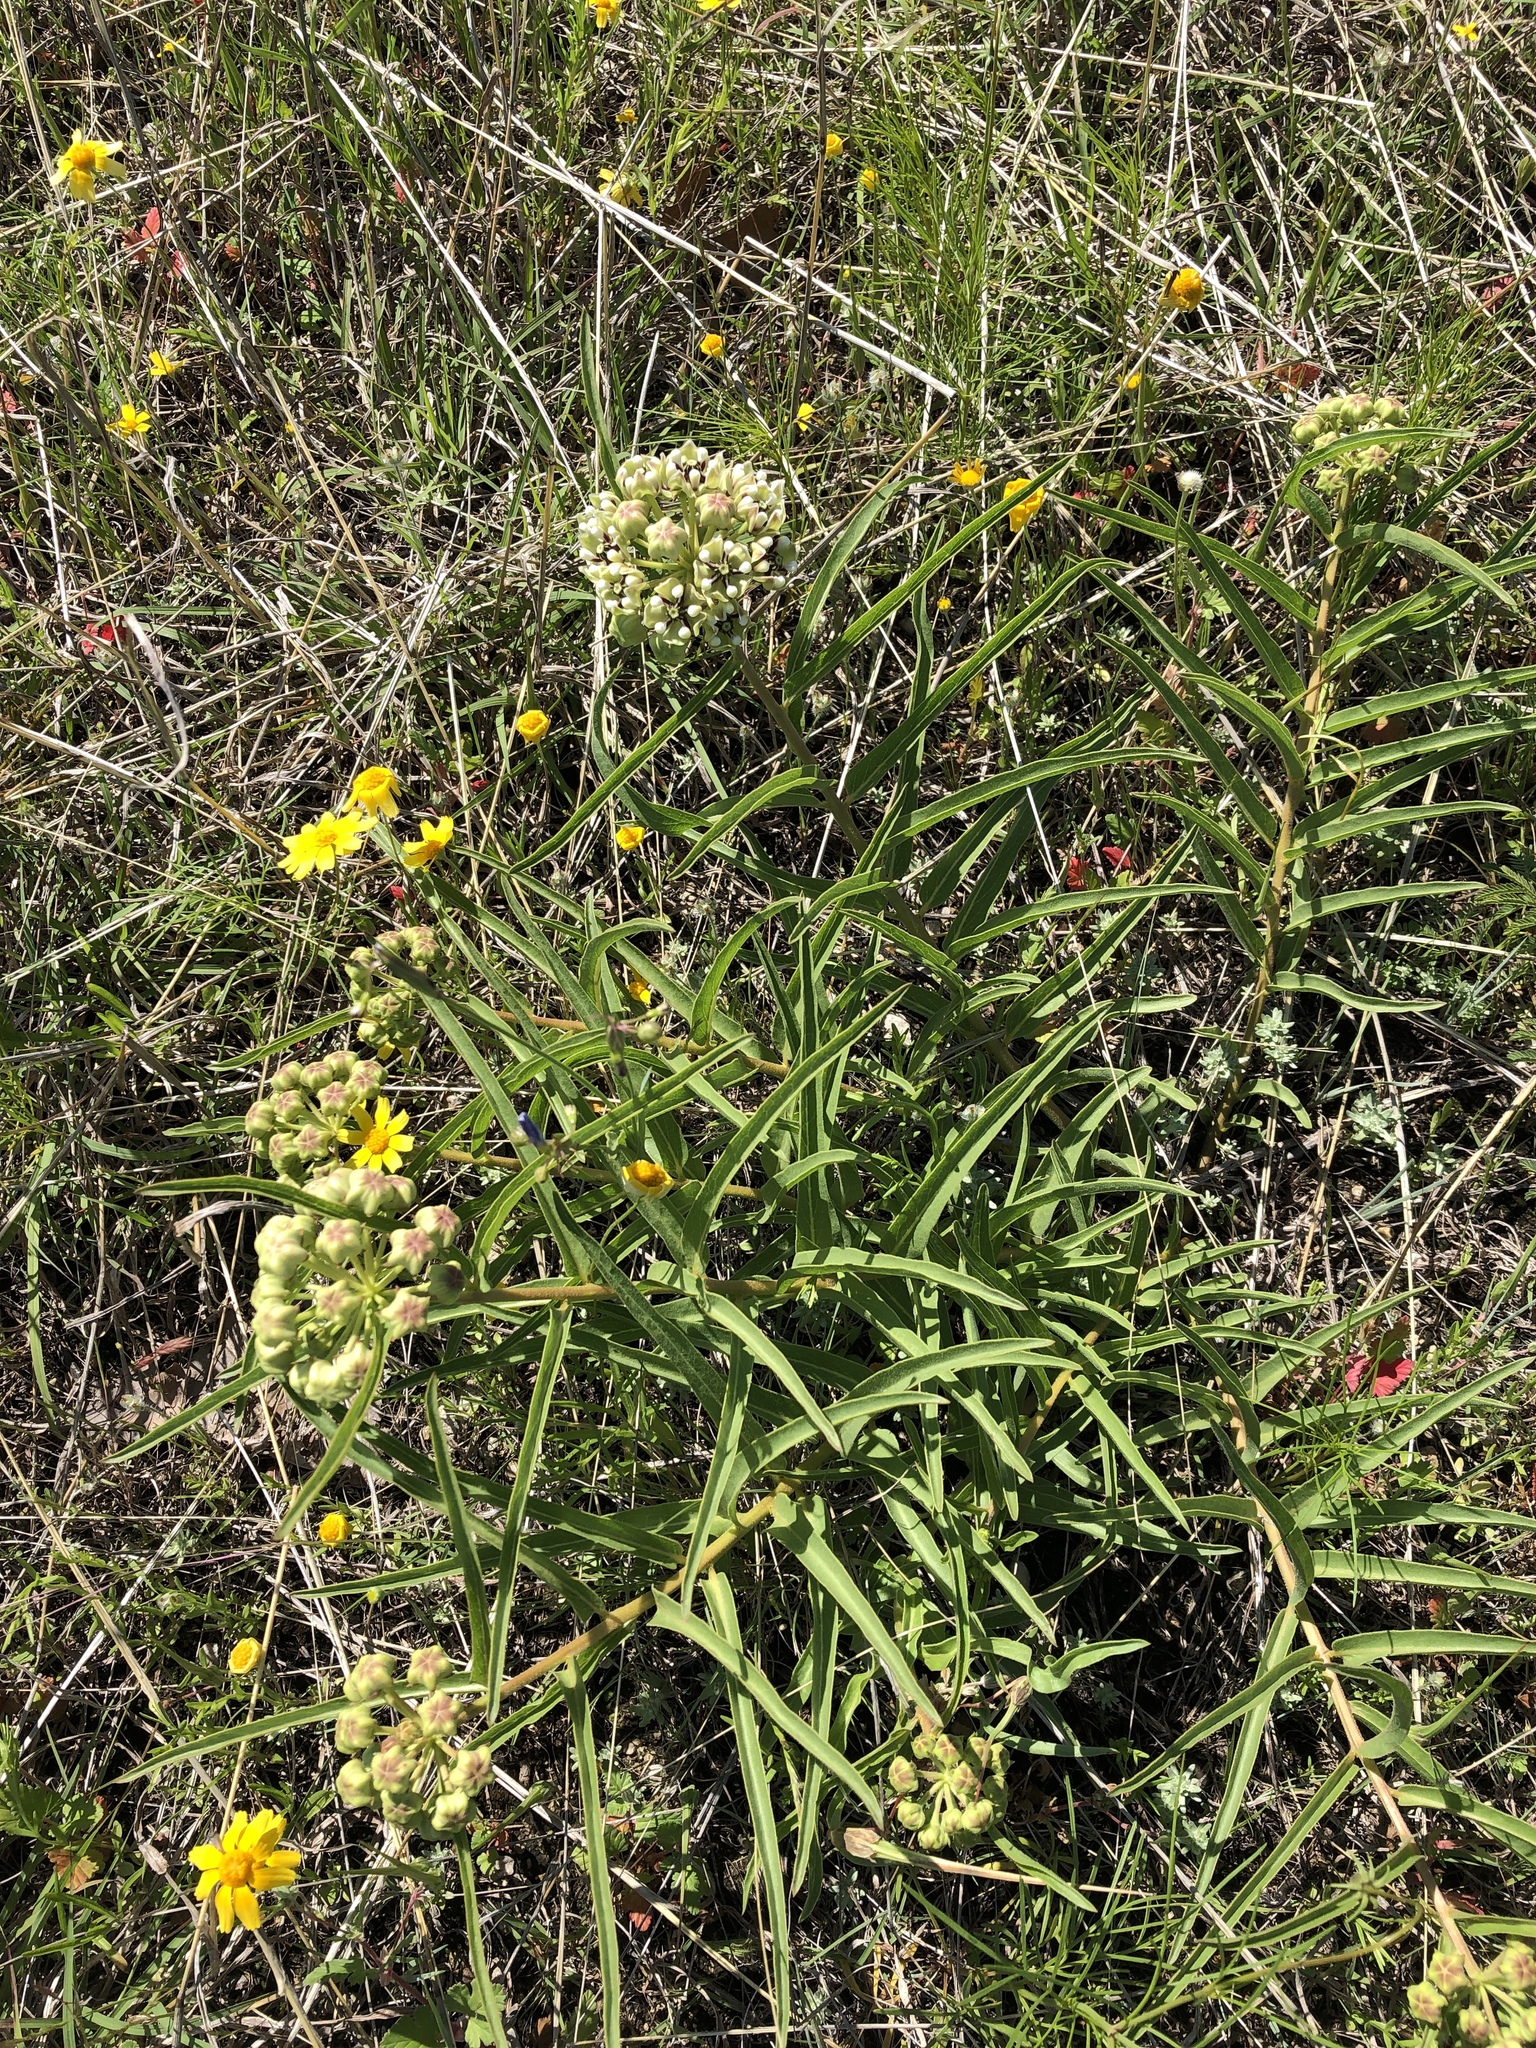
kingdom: Plantae
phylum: Tracheophyta
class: Magnoliopsida
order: Gentianales
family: Apocynaceae
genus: Asclepias
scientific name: Asclepias asperula
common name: Antelope horns
